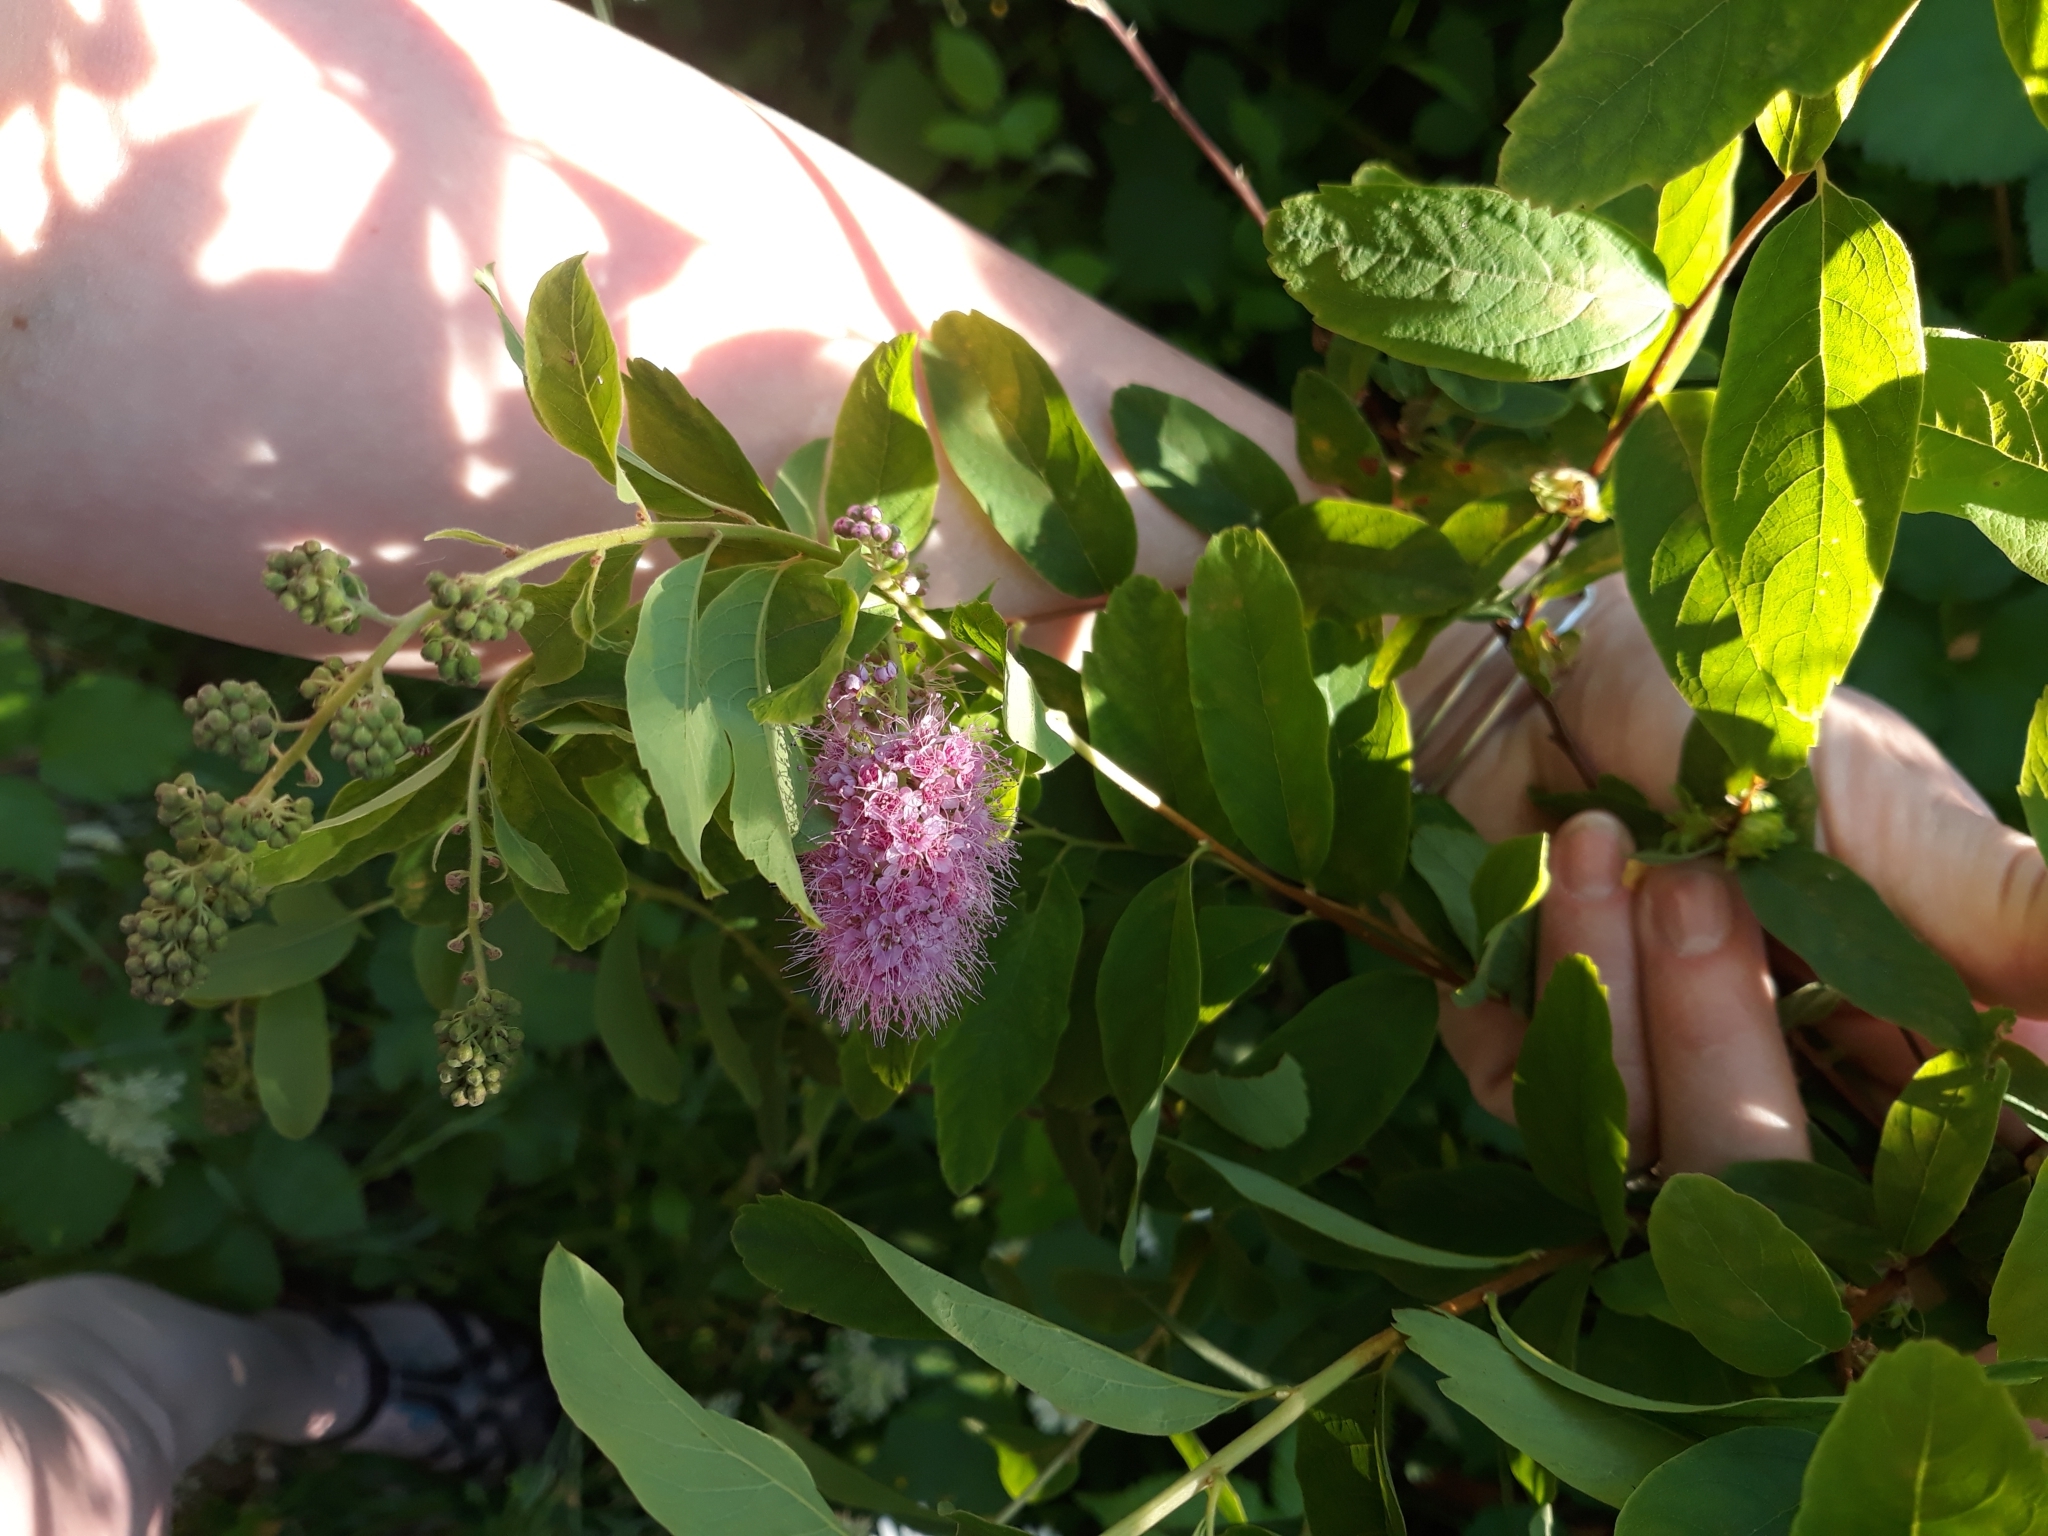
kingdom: Plantae
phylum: Tracheophyta
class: Magnoliopsida
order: Rosales
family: Rosaceae
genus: Spiraea
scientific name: Spiraea douglasii
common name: Steeplebush
